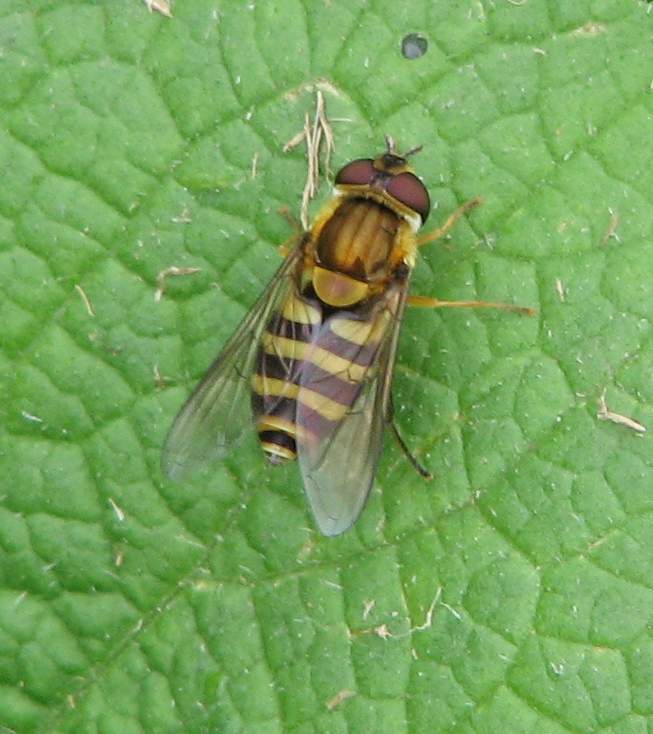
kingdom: Animalia
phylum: Arthropoda
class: Insecta
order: Diptera
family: Syrphidae
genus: Syrphus
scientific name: Syrphus
